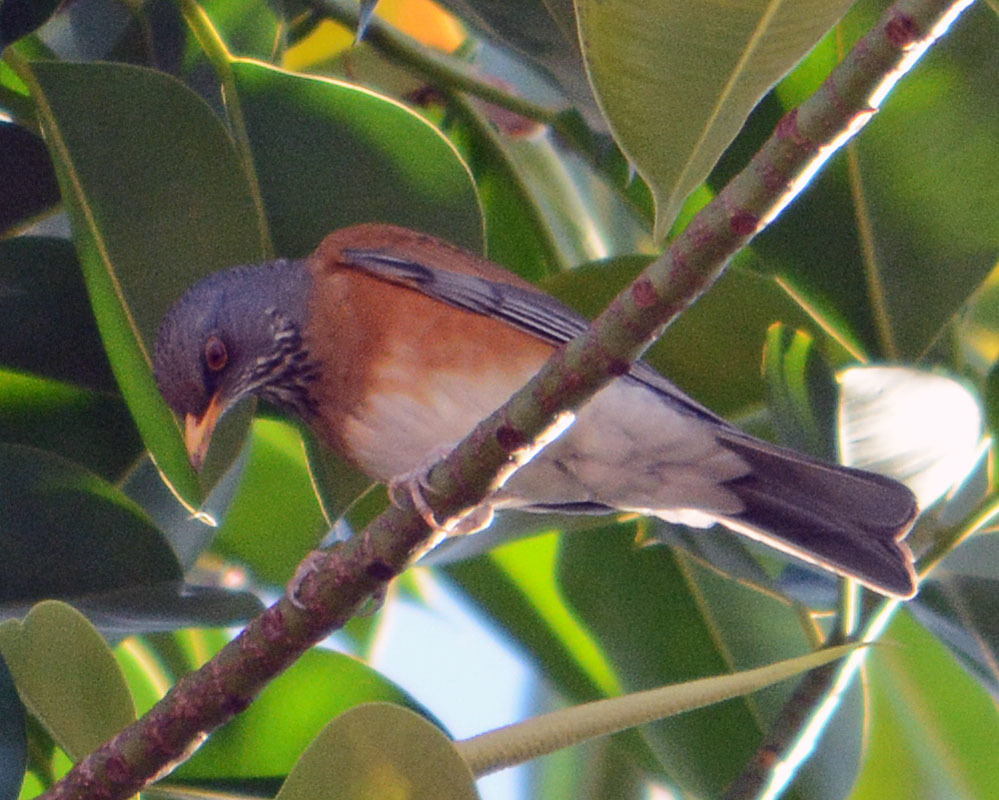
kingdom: Animalia
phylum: Chordata
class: Aves
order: Passeriformes
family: Turdidae
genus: Turdus
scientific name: Turdus rufopalliatus
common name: Rufous-backed robin
